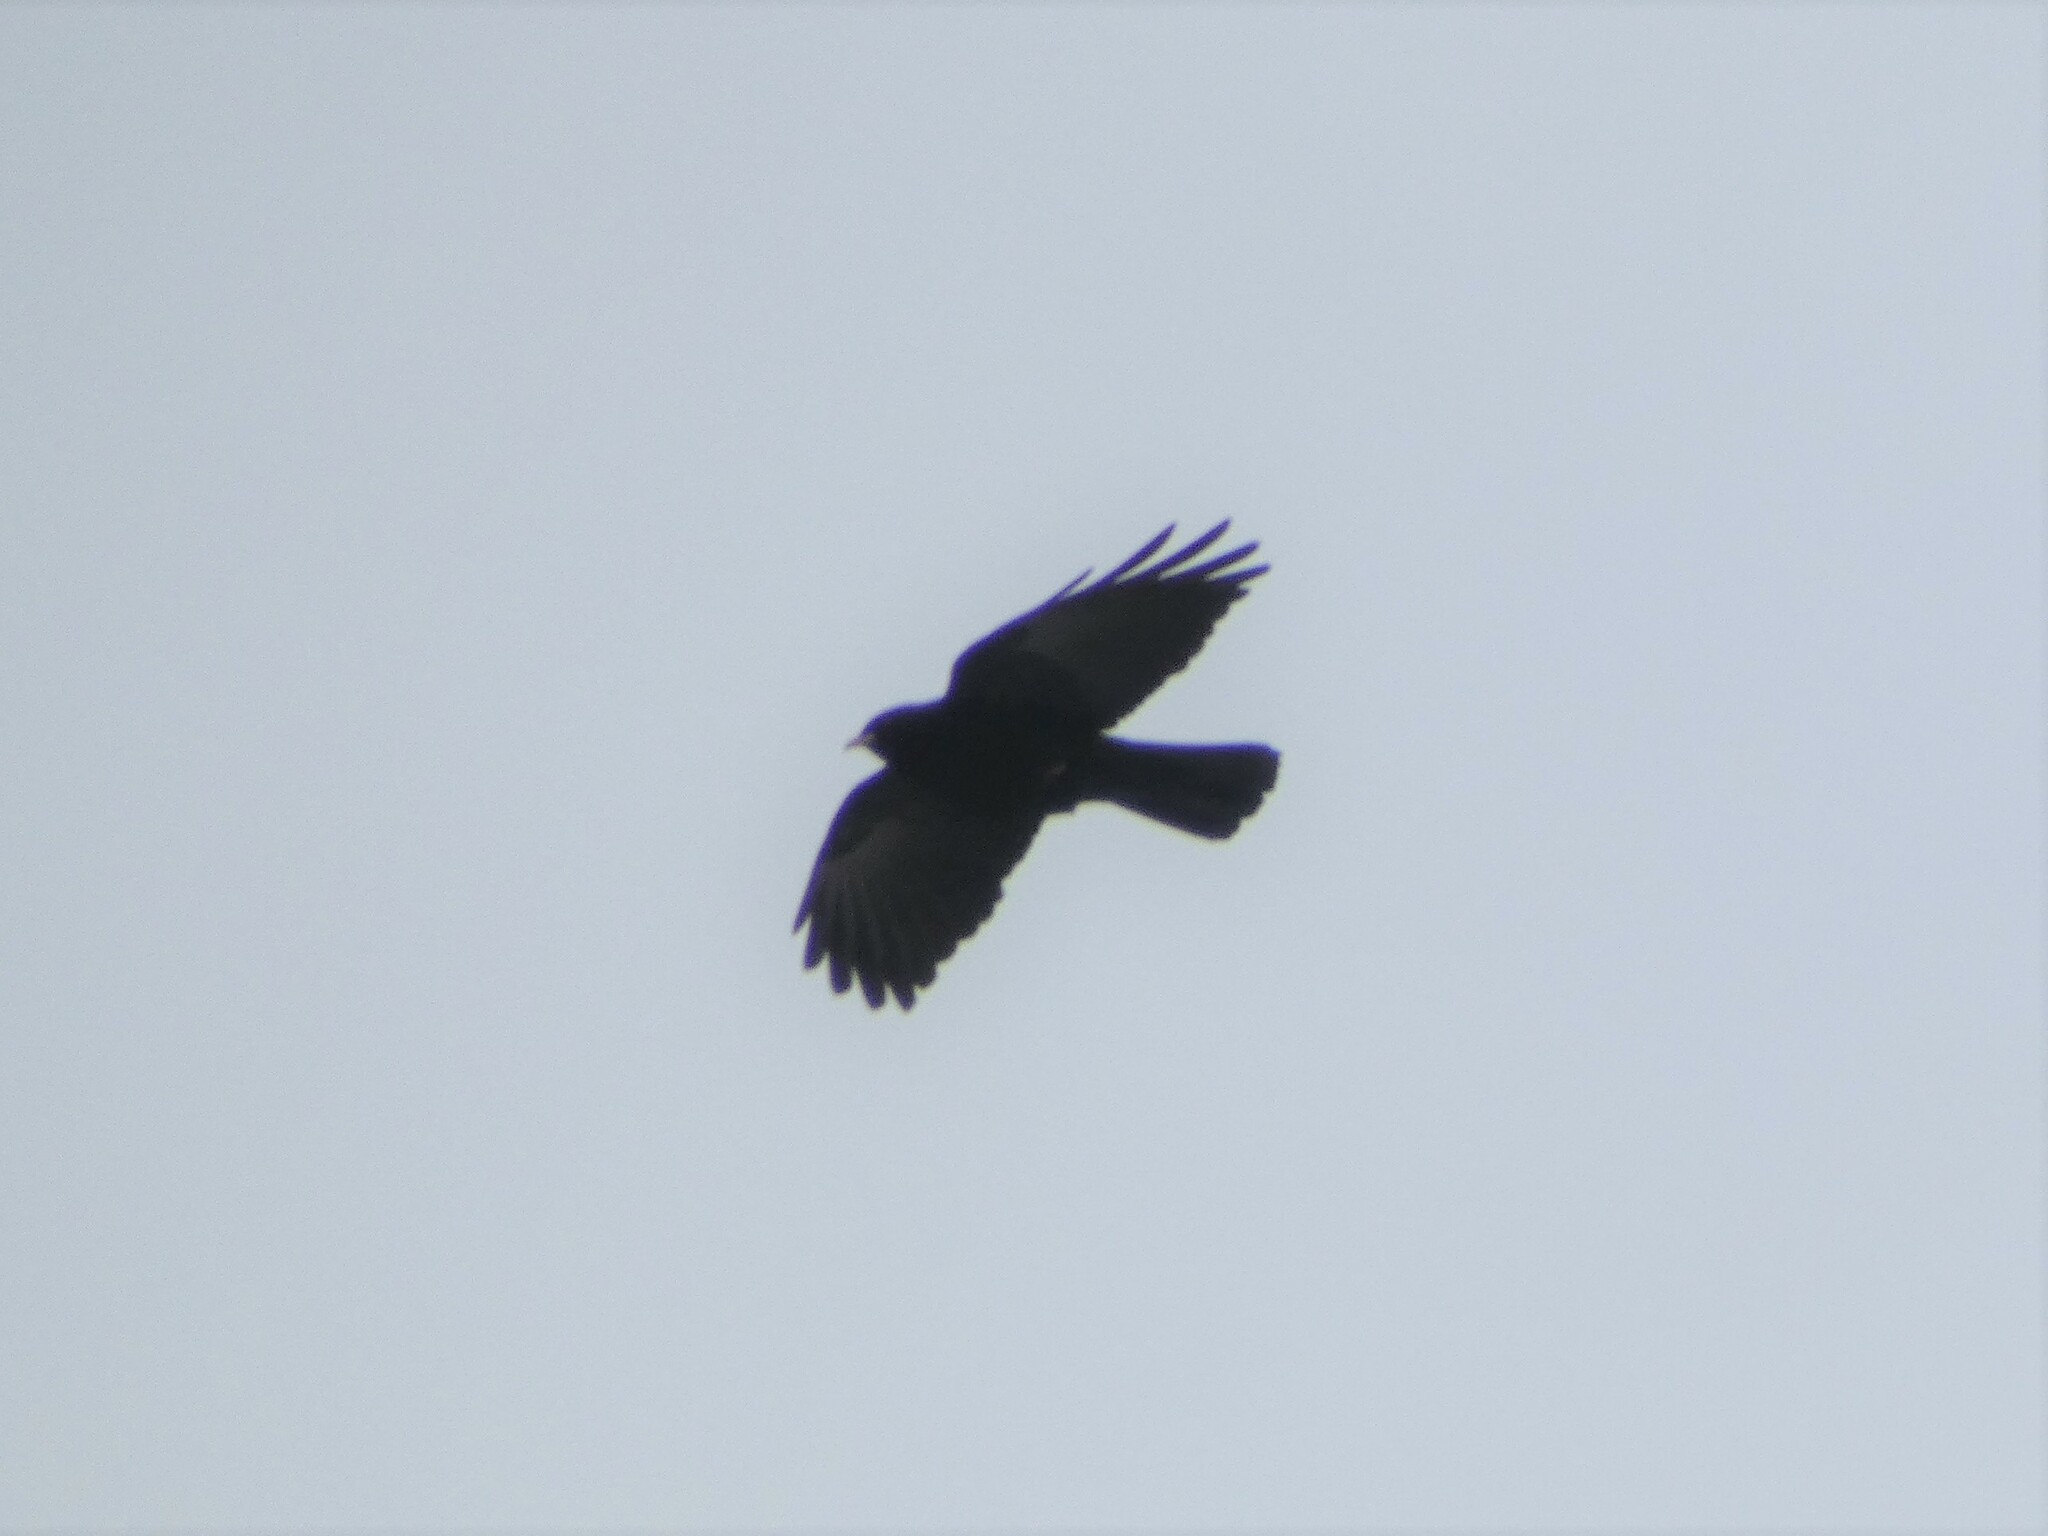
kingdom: Animalia
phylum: Chordata
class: Aves
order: Passeriformes
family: Corvidae
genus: Pyrrhocorax
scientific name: Pyrrhocorax graculus
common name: Alpine chough
